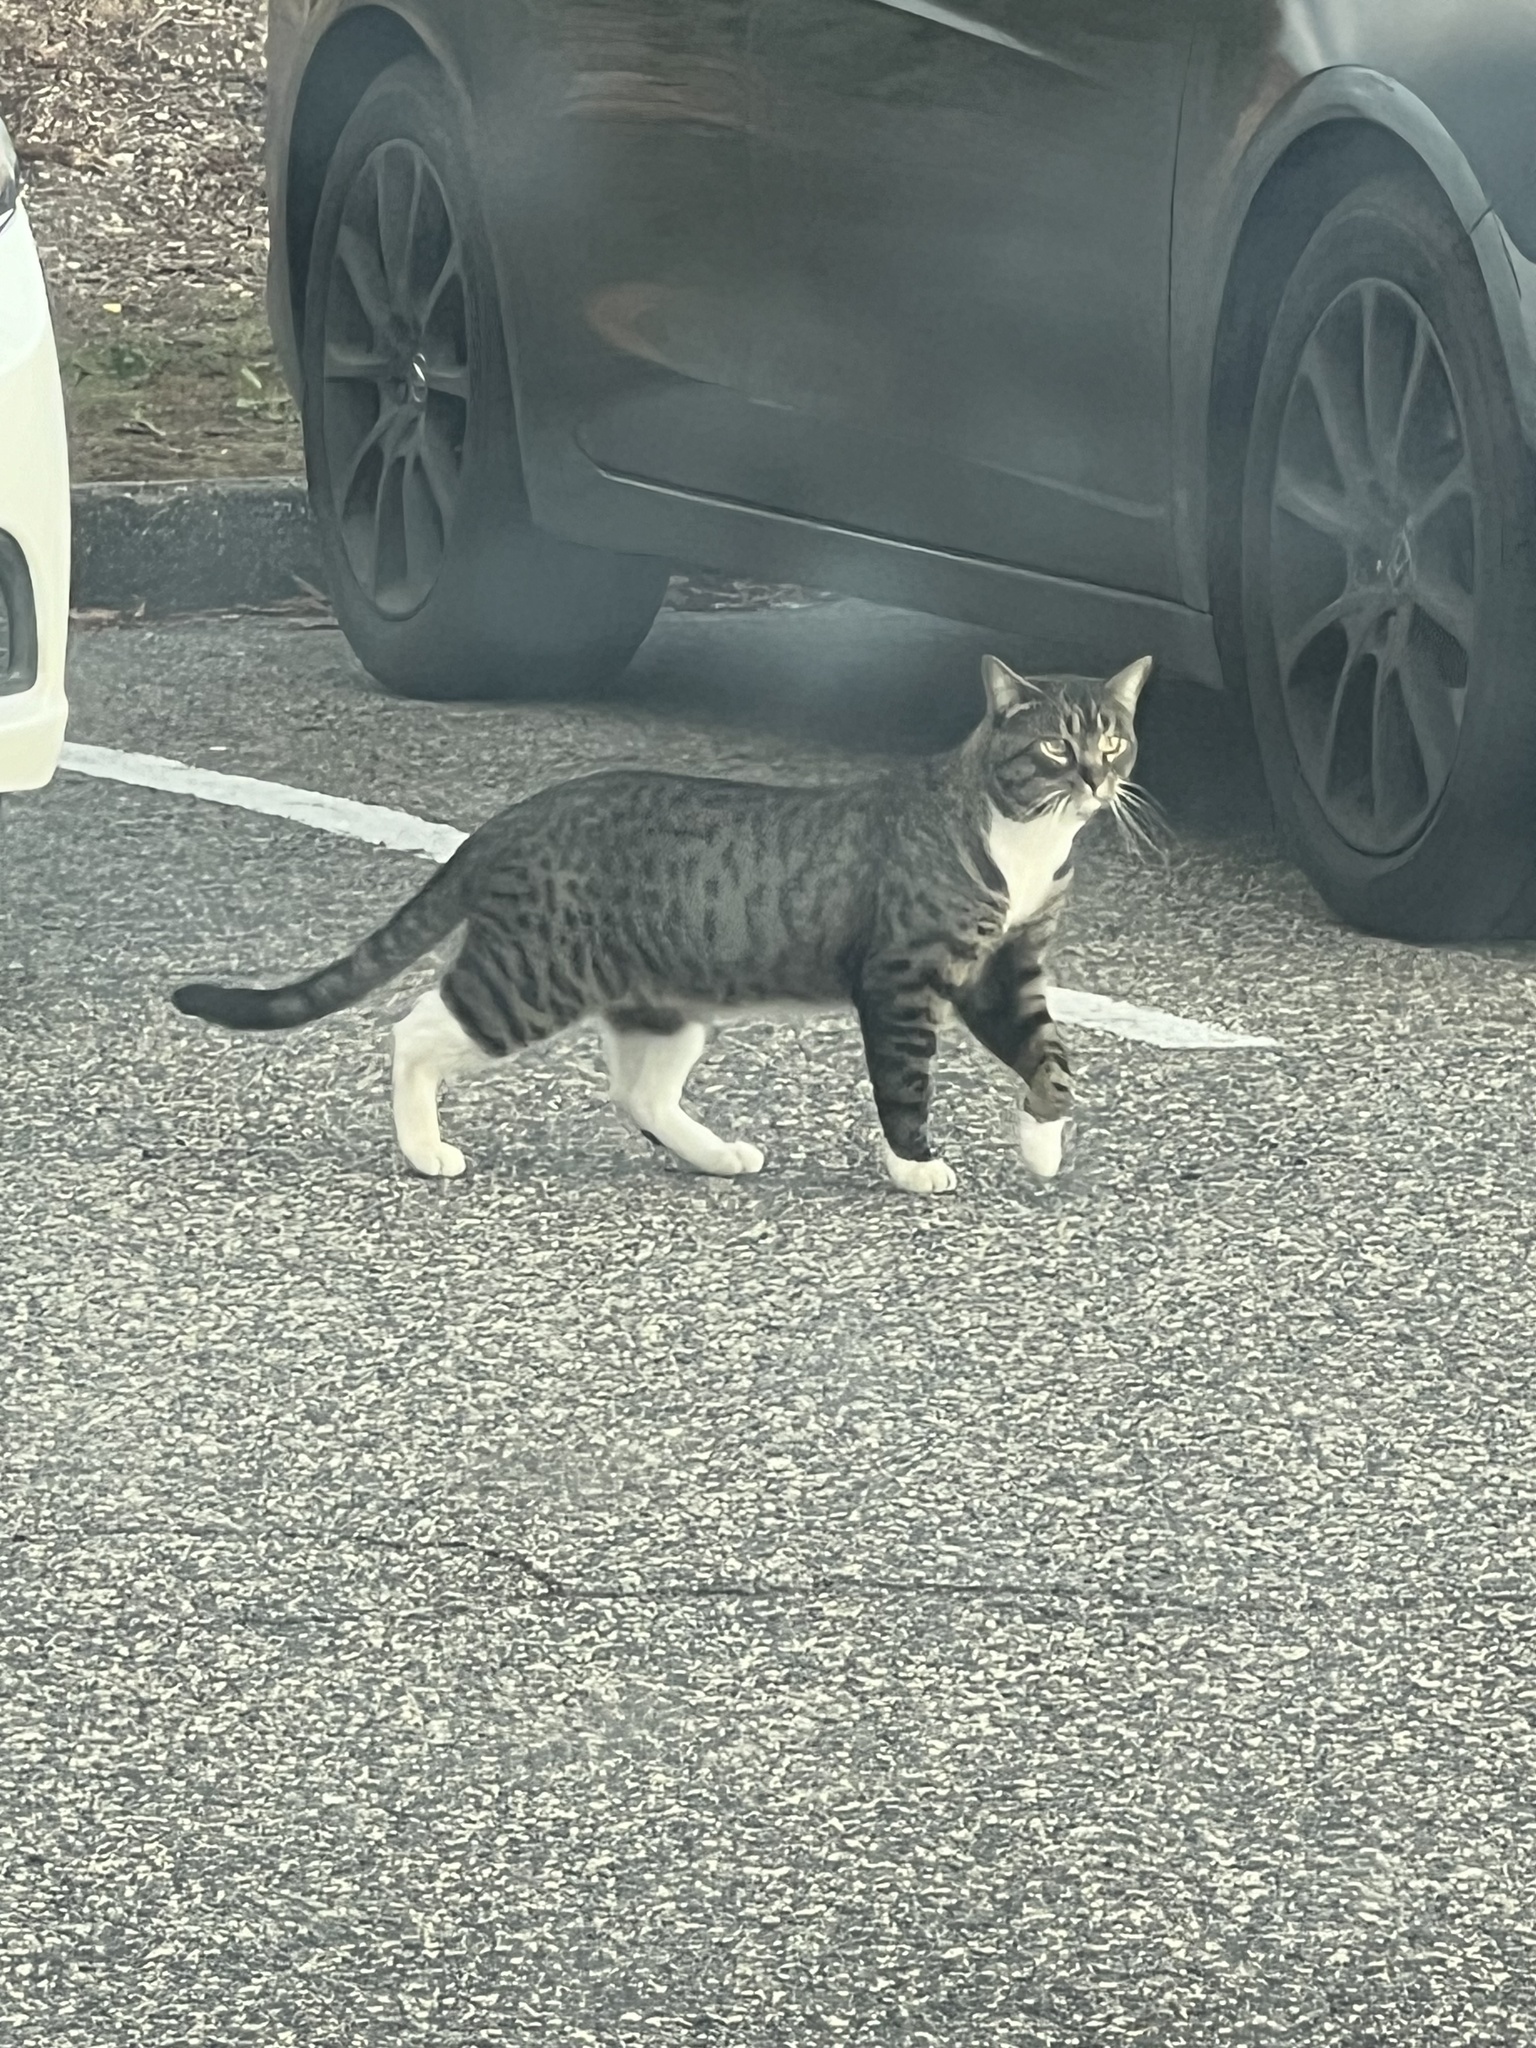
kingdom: Animalia
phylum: Chordata
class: Mammalia
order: Carnivora
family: Felidae
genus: Felis
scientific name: Felis catus
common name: Domestic cat
